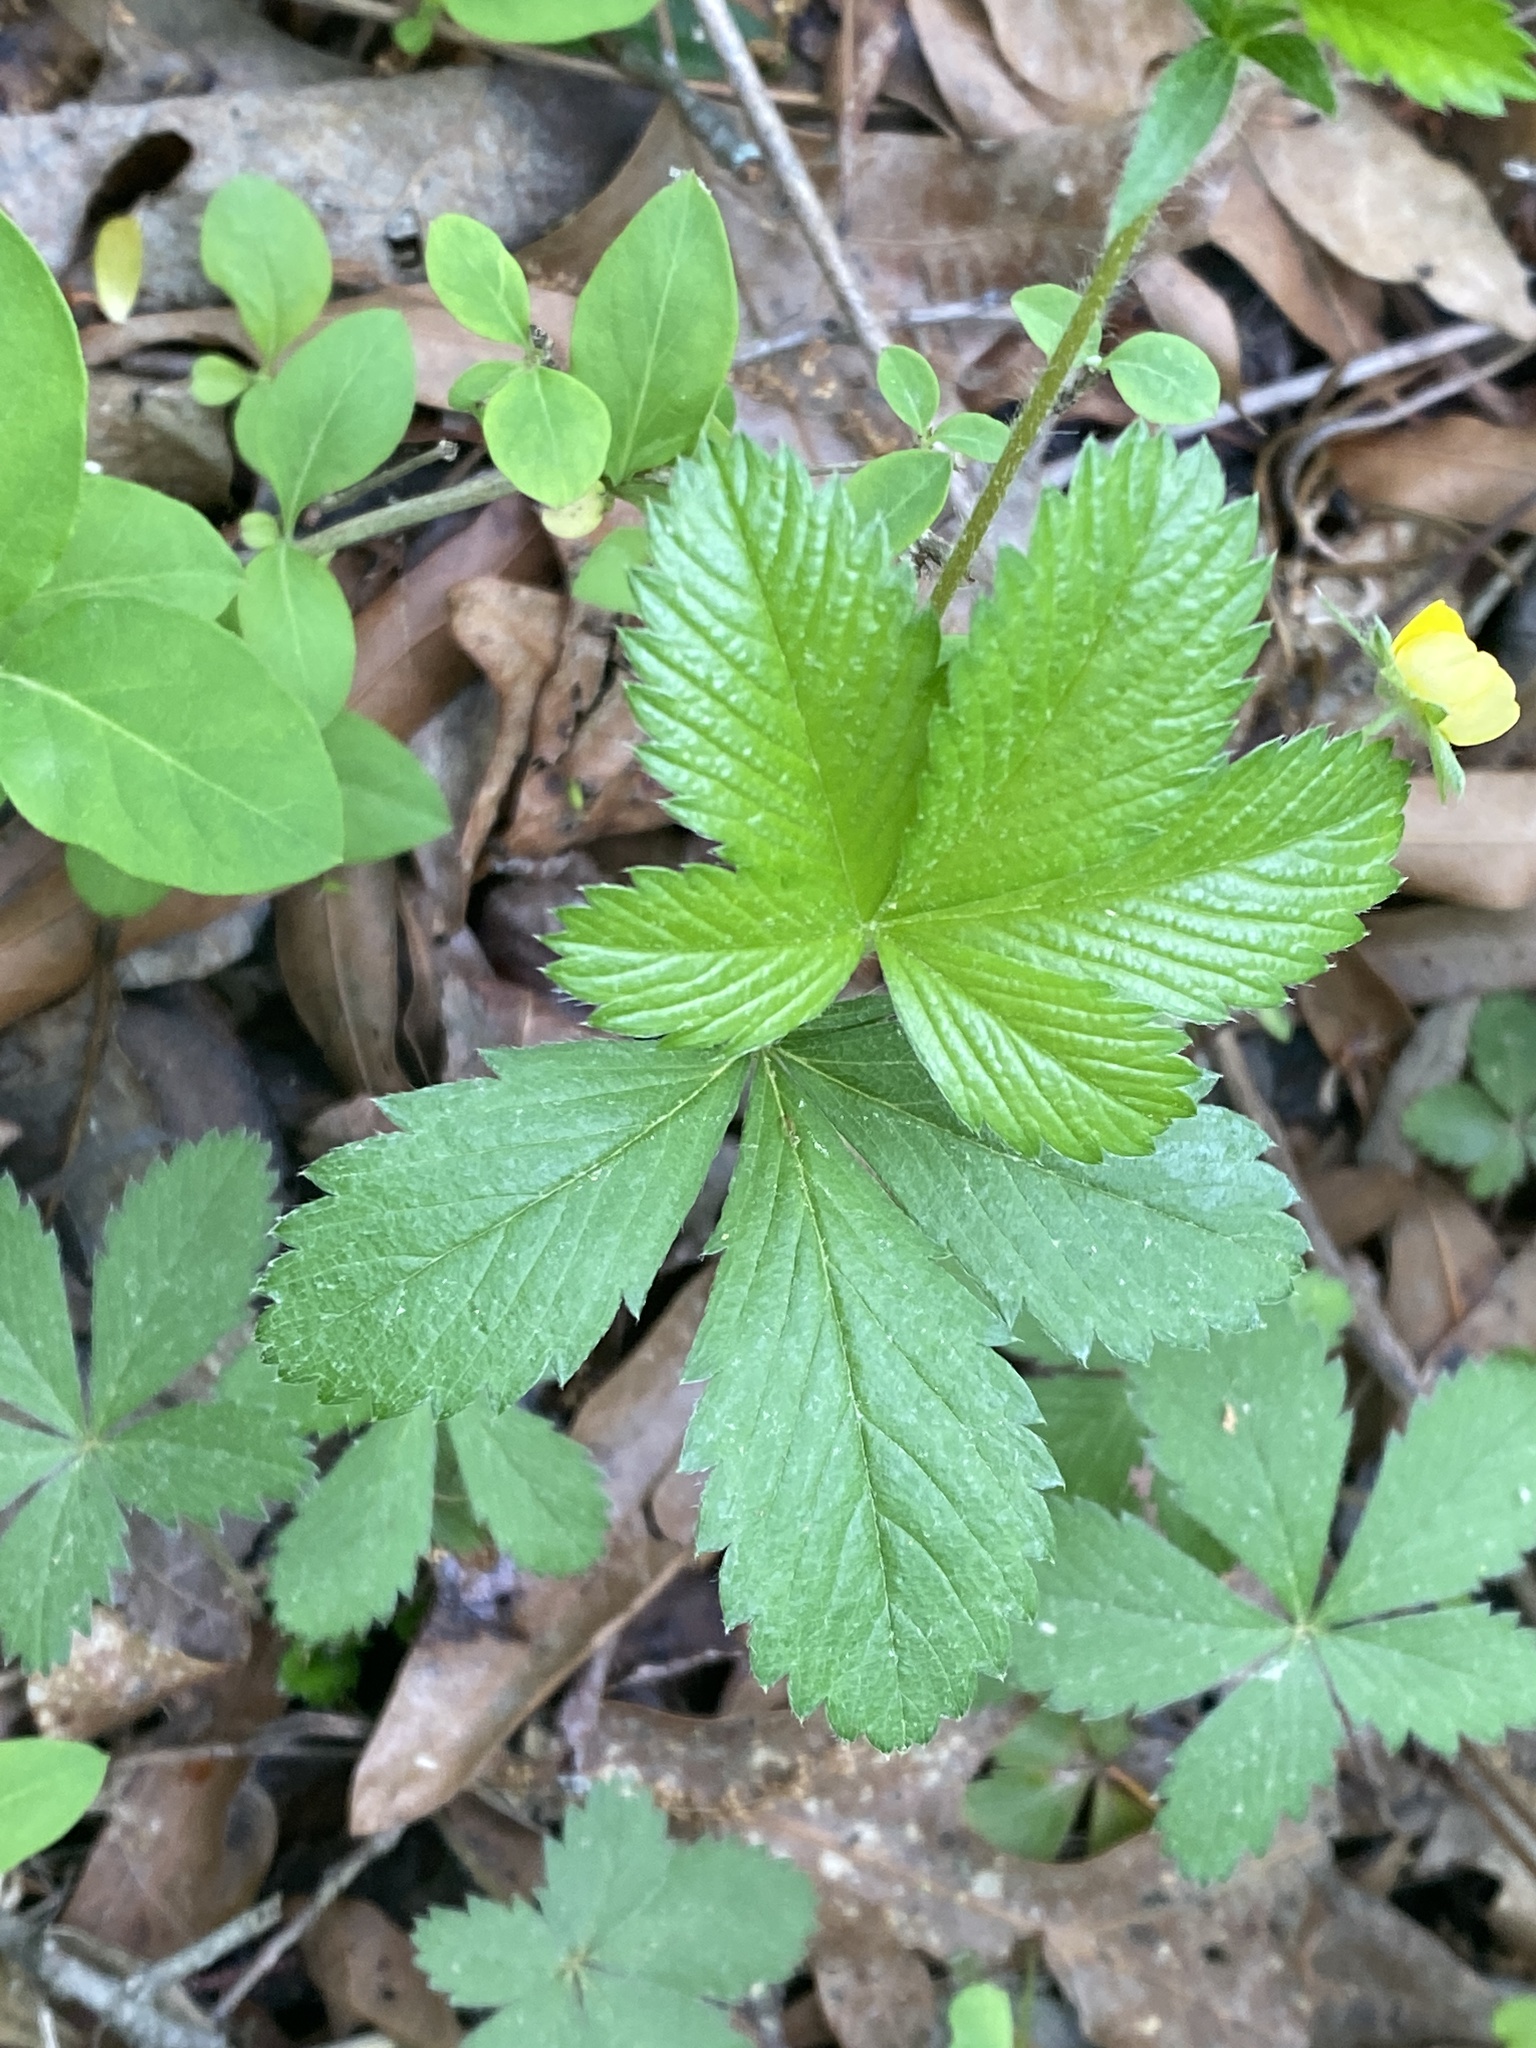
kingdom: Plantae
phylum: Tracheophyta
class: Magnoliopsida
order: Rosales
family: Rosaceae
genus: Potentilla
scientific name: Potentilla simplex
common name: Old field cinquefoil
